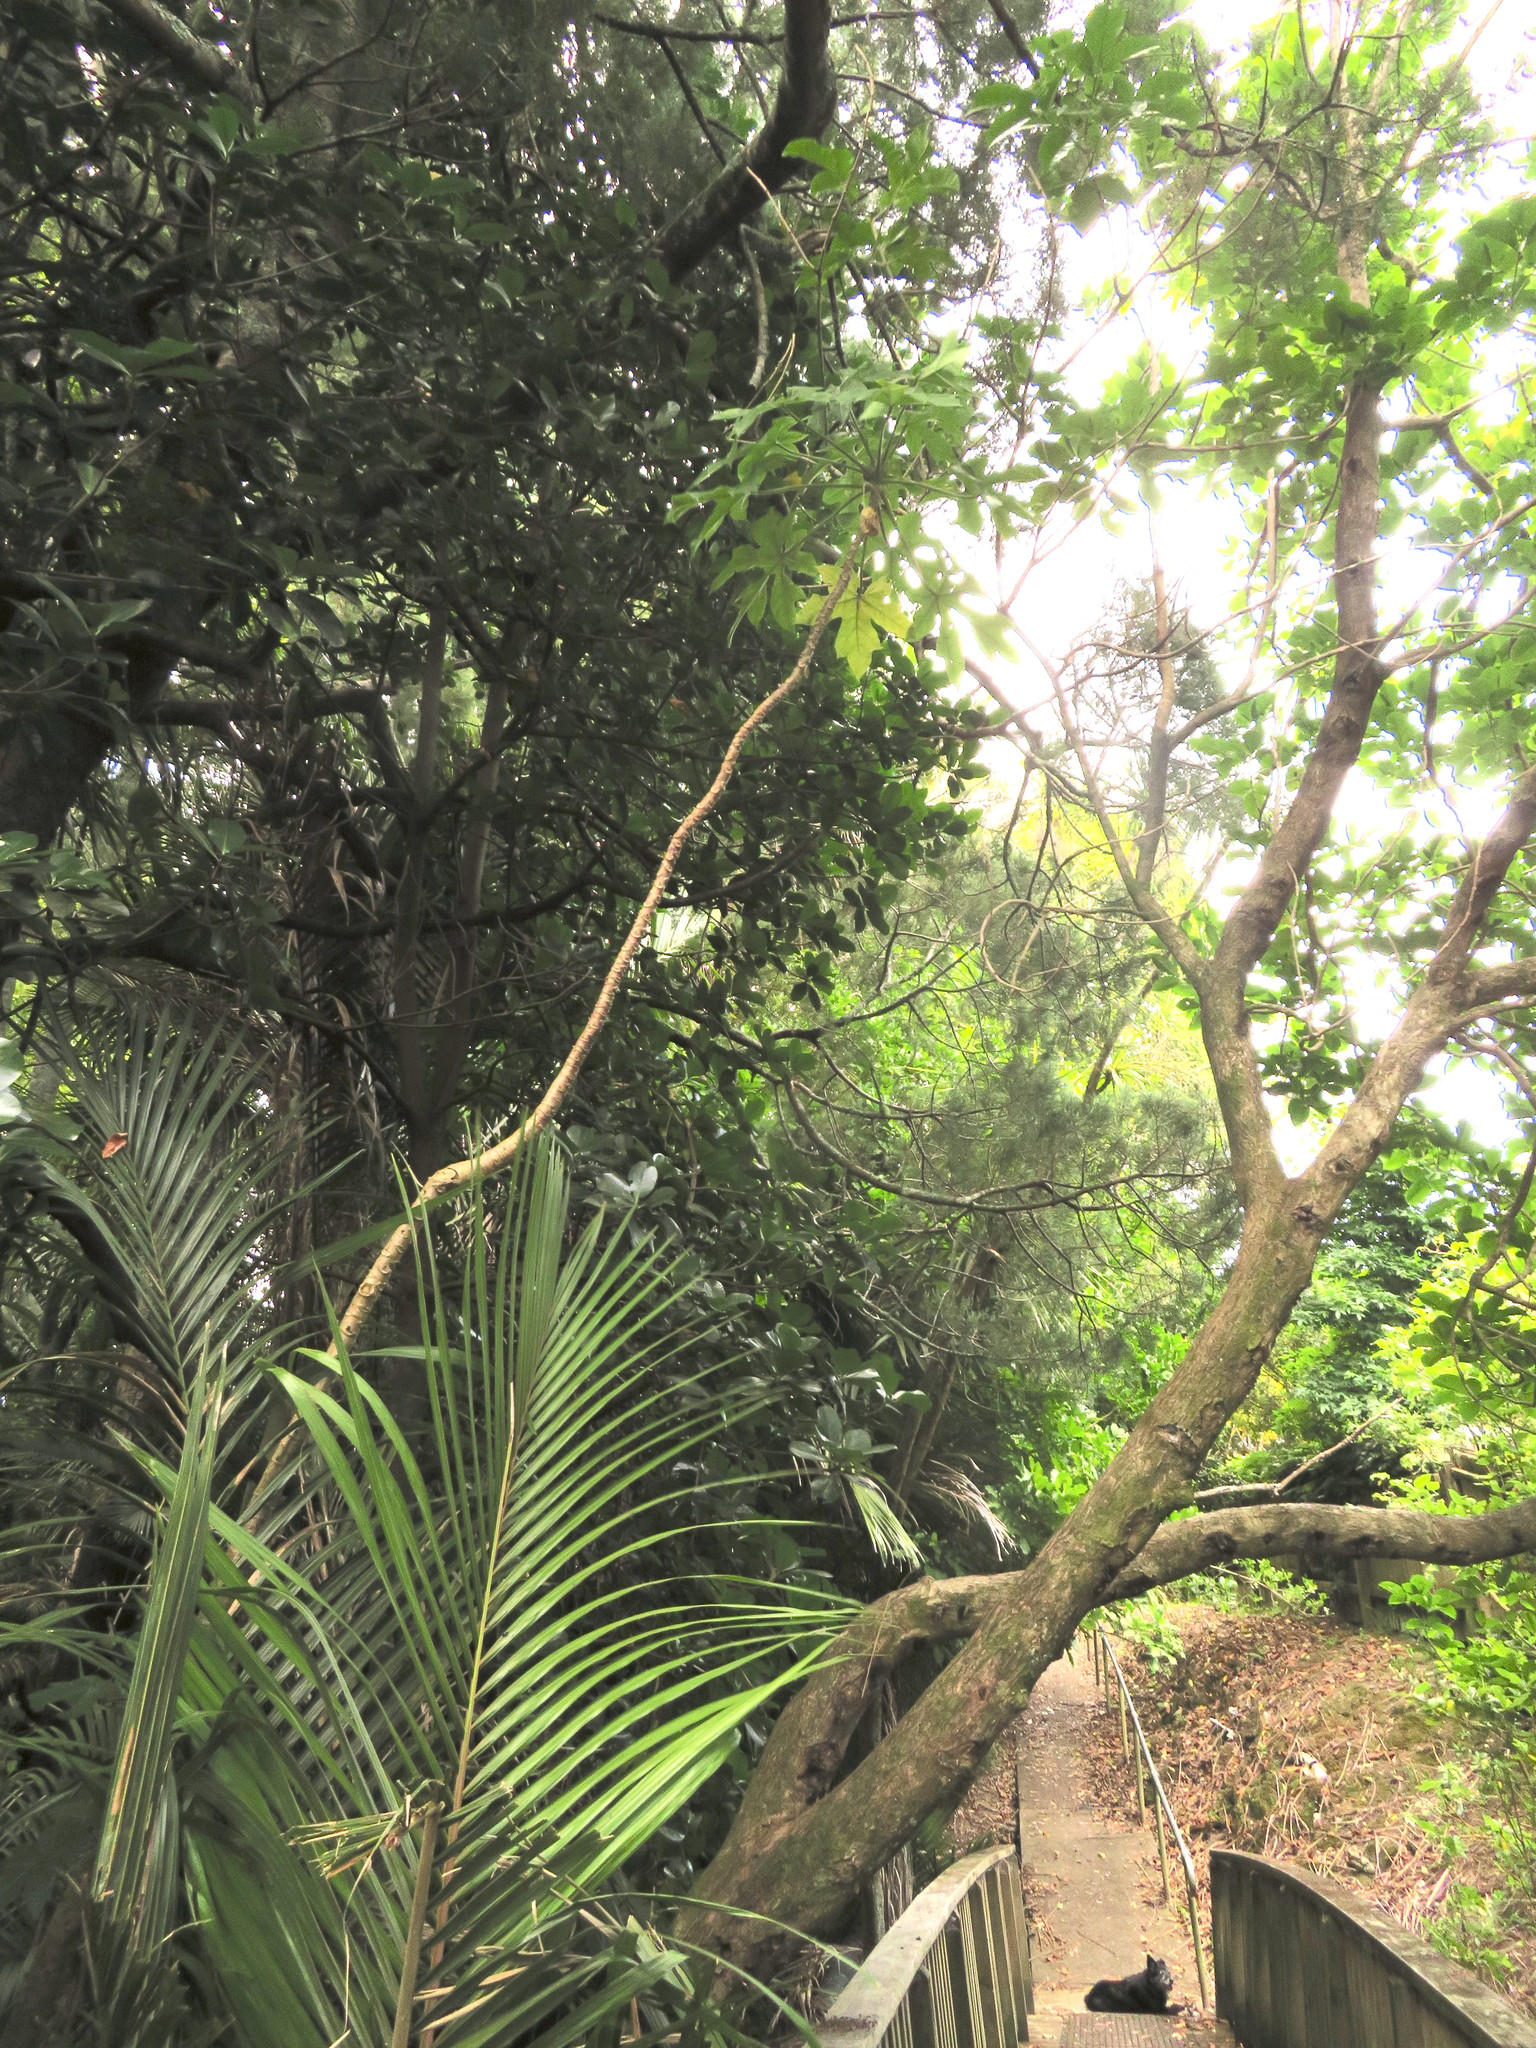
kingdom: Plantae
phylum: Tracheophyta
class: Liliopsida
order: Arecales
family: Arecaceae
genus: Rhopalostylis
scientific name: Rhopalostylis sapida
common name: Feather-duster palm
